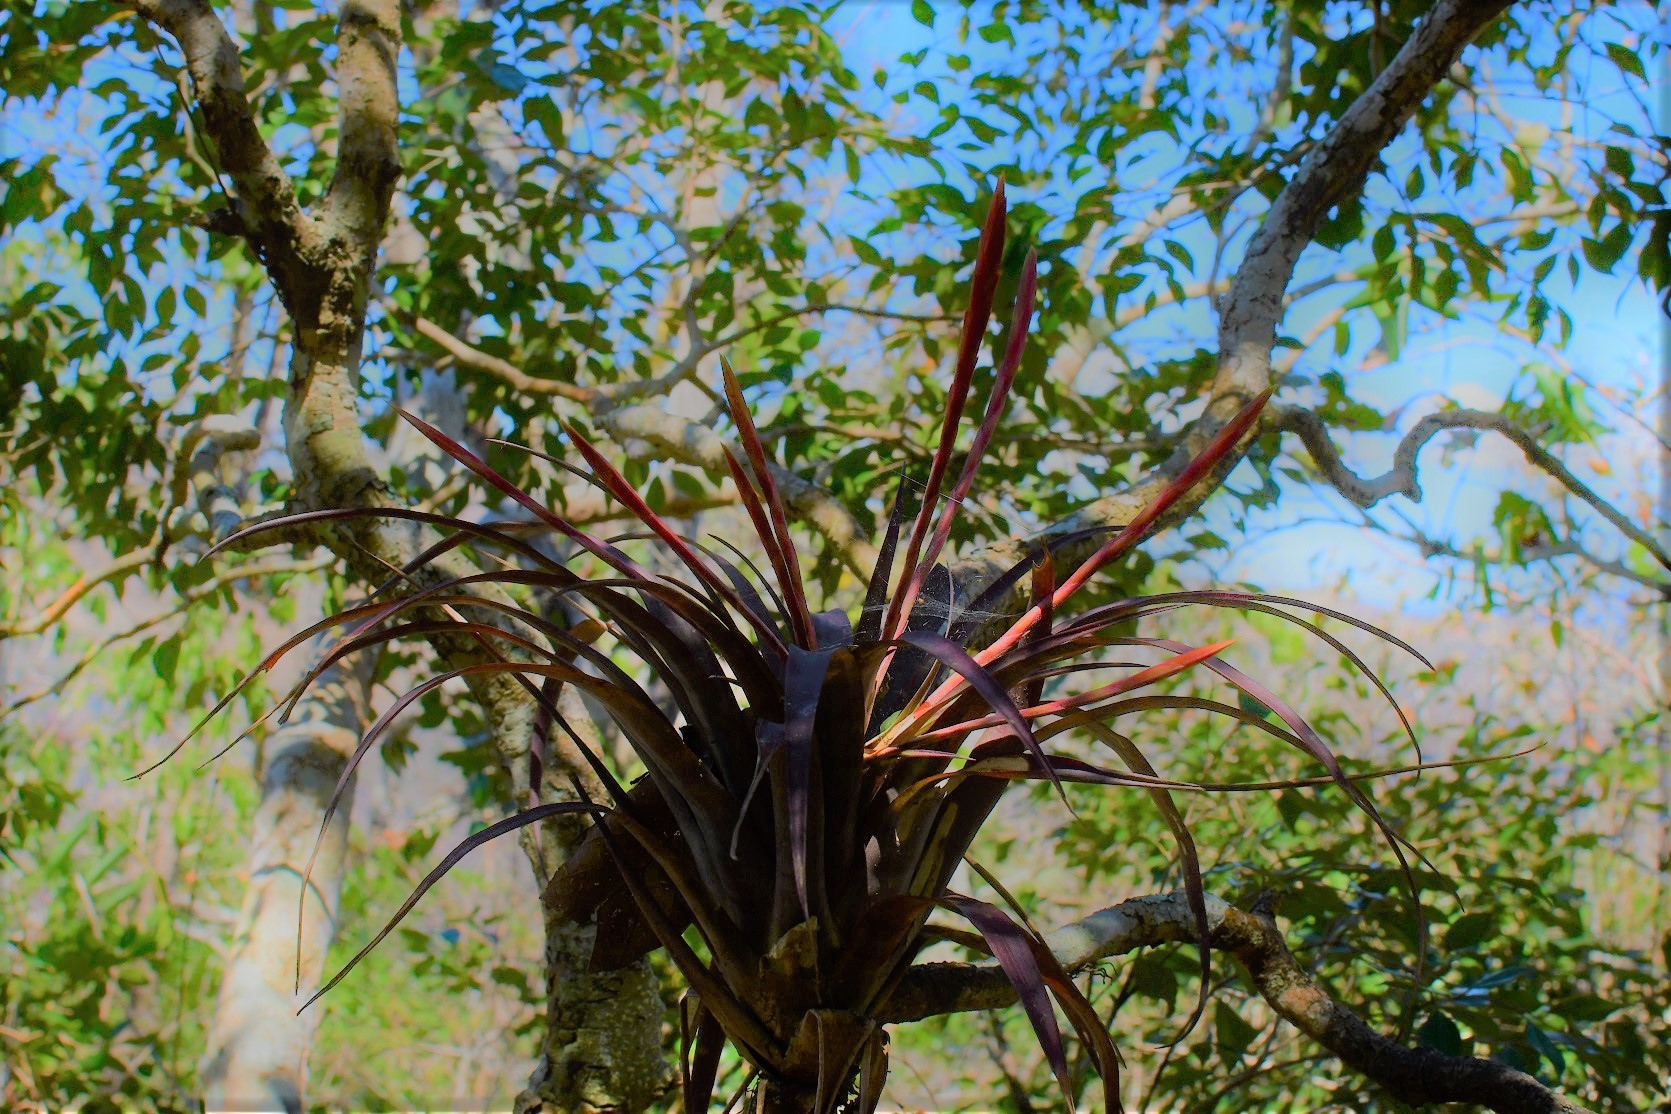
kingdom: Plantae
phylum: Tracheophyta
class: Liliopsida
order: Poales
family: Bromeliaceae
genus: Tillandsia
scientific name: Tillandsia flabellata
